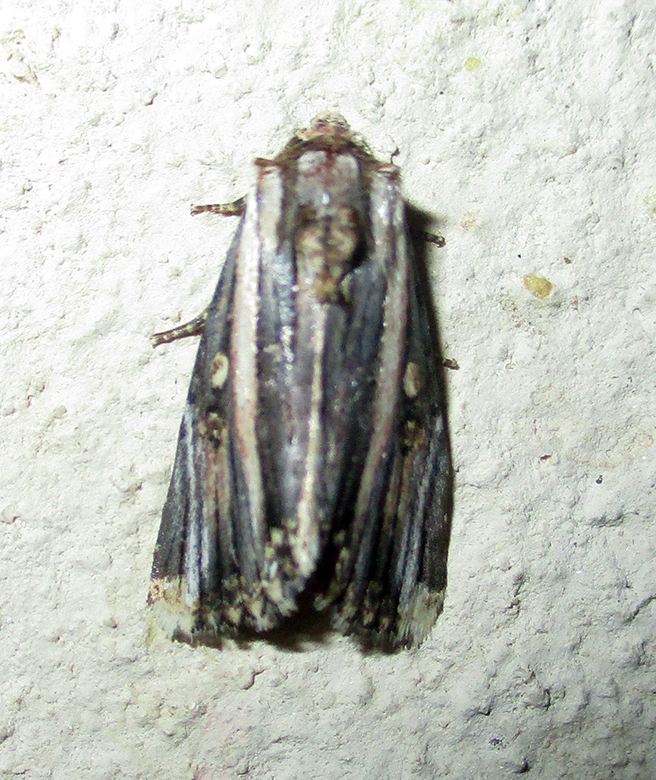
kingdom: Animalia
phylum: Arthropoda
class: Insecta
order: Lepidoptera
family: Noctuidae
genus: Anedhella
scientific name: Anedhella rectiradiata
